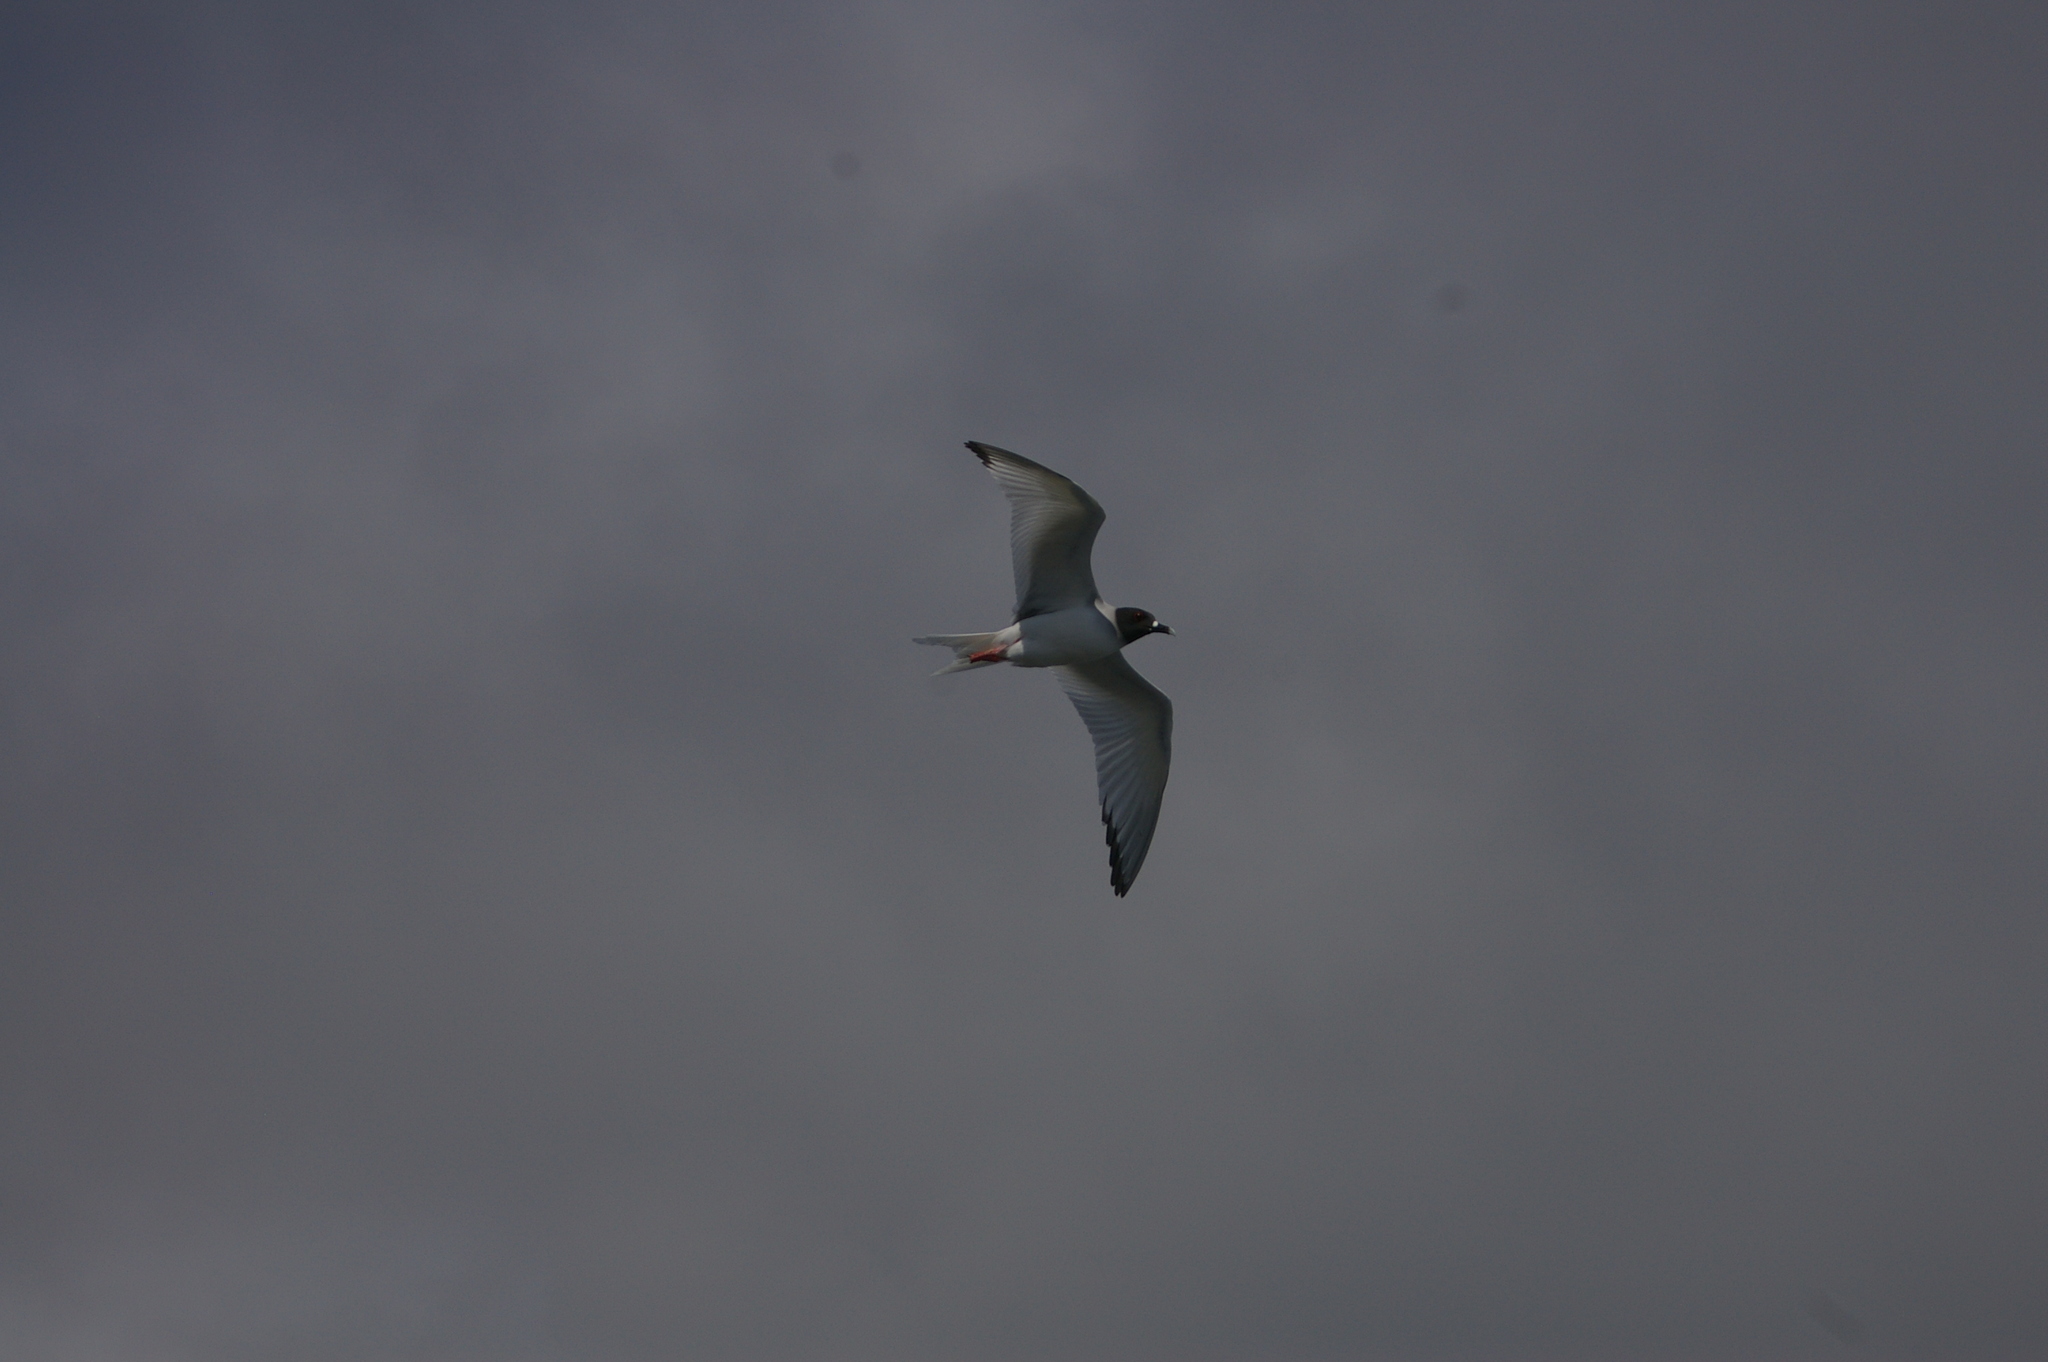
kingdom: Animalia
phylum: Chordata
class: Aves
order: Charadriiformes
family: Laridae
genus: Creagrus
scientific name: Creagrus furcatus
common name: Swallow-tailed gull
